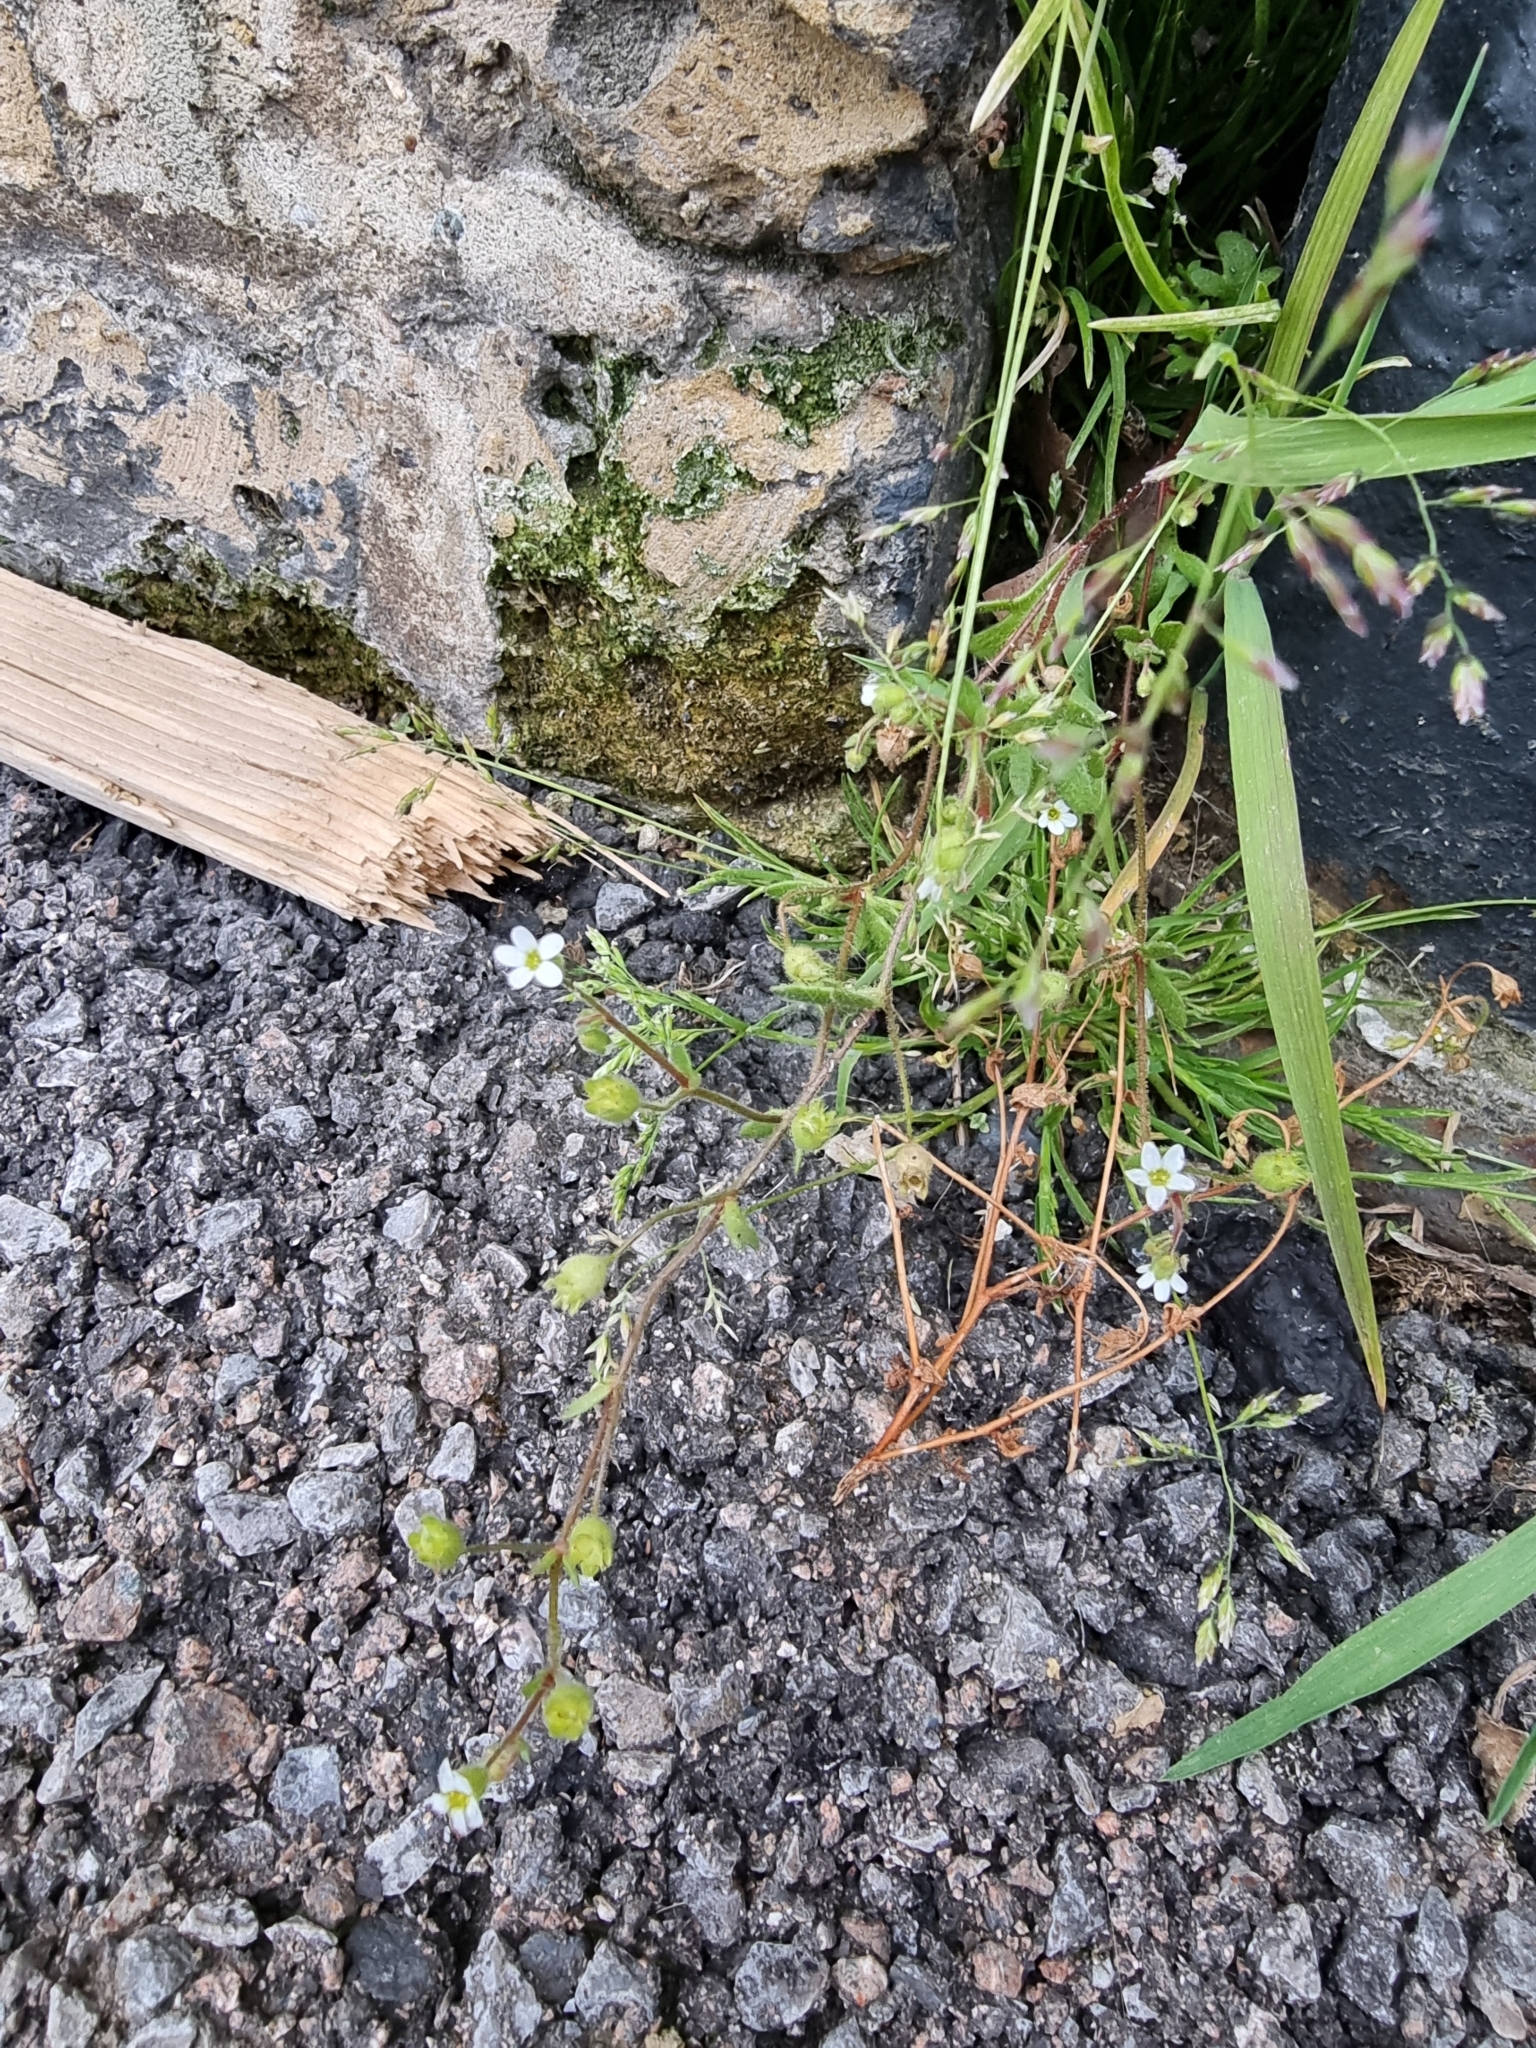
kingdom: Plantae
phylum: Tracheophyta
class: Magnoliopsida
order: Saxifragales
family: Saxifragaceae
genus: Saxifraga
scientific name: Saxifraga tridactylites
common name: Rue-leaved saxifrage
